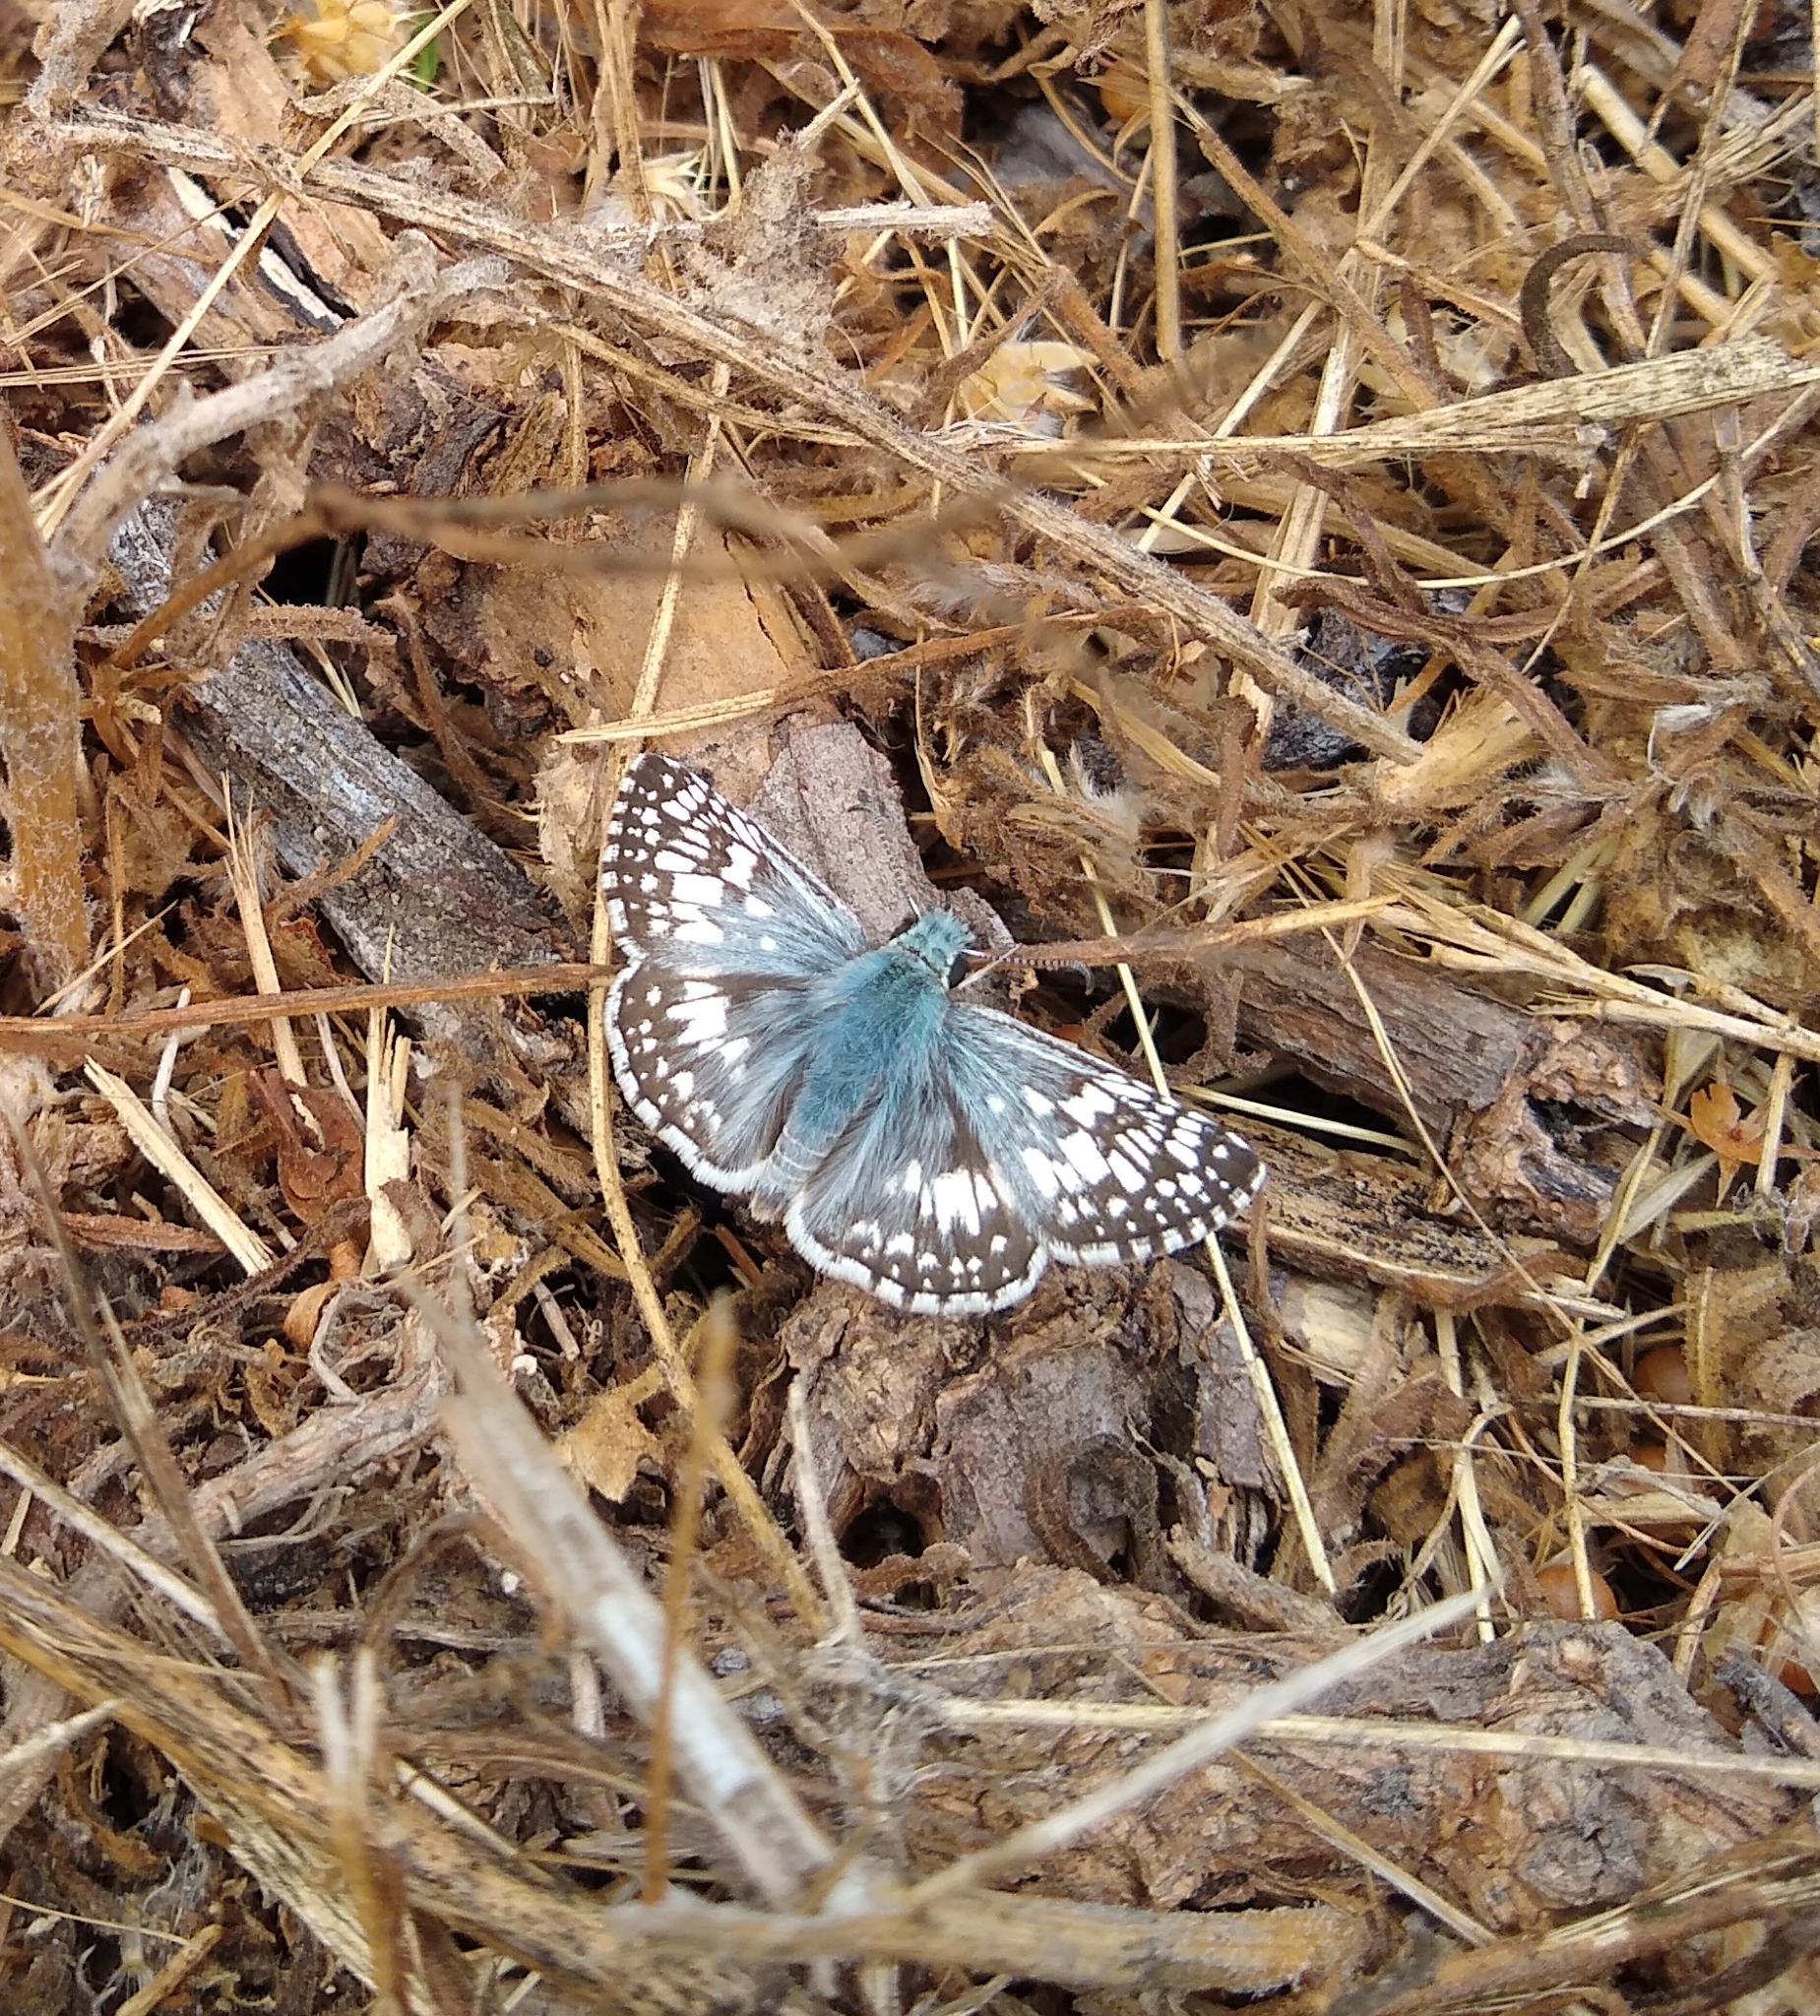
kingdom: Animalia
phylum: Arthropoda
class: Insecta
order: Lepidoptera
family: Hesperiidae
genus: Burnsius
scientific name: Burnsius communis
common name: Common checkered-skipper
